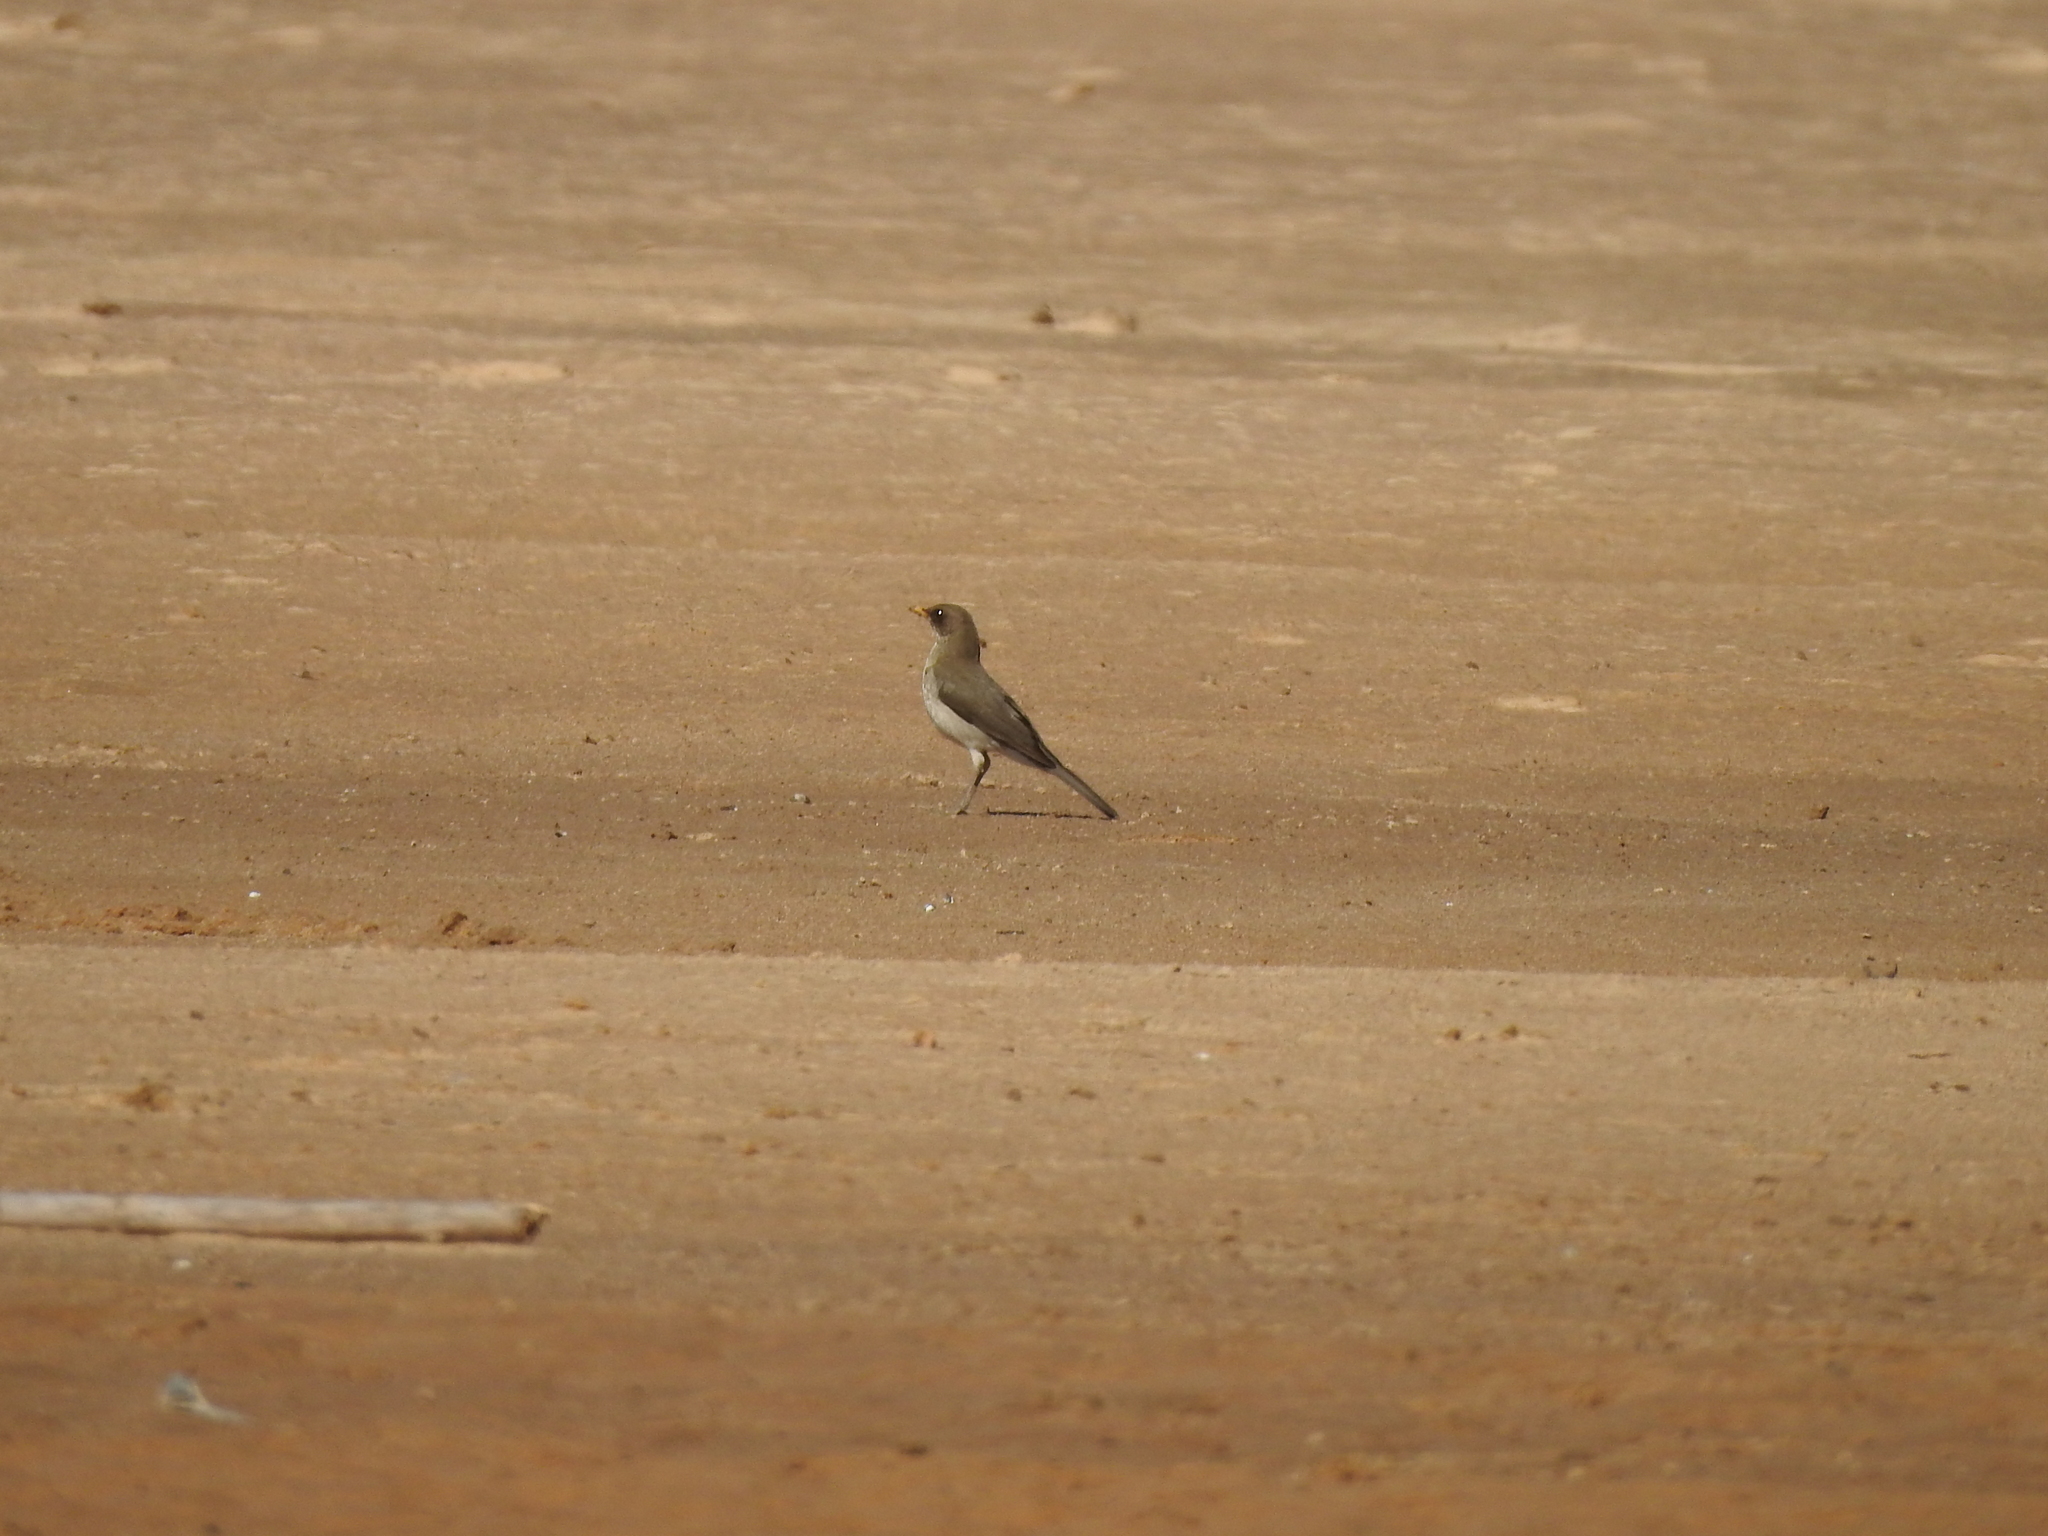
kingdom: Animalia
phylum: Chordata
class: Aves
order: Passeriformes
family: Turdidae
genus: Turdus
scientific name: Turdus amaurochalinus
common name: Creamy-bellied thrush
